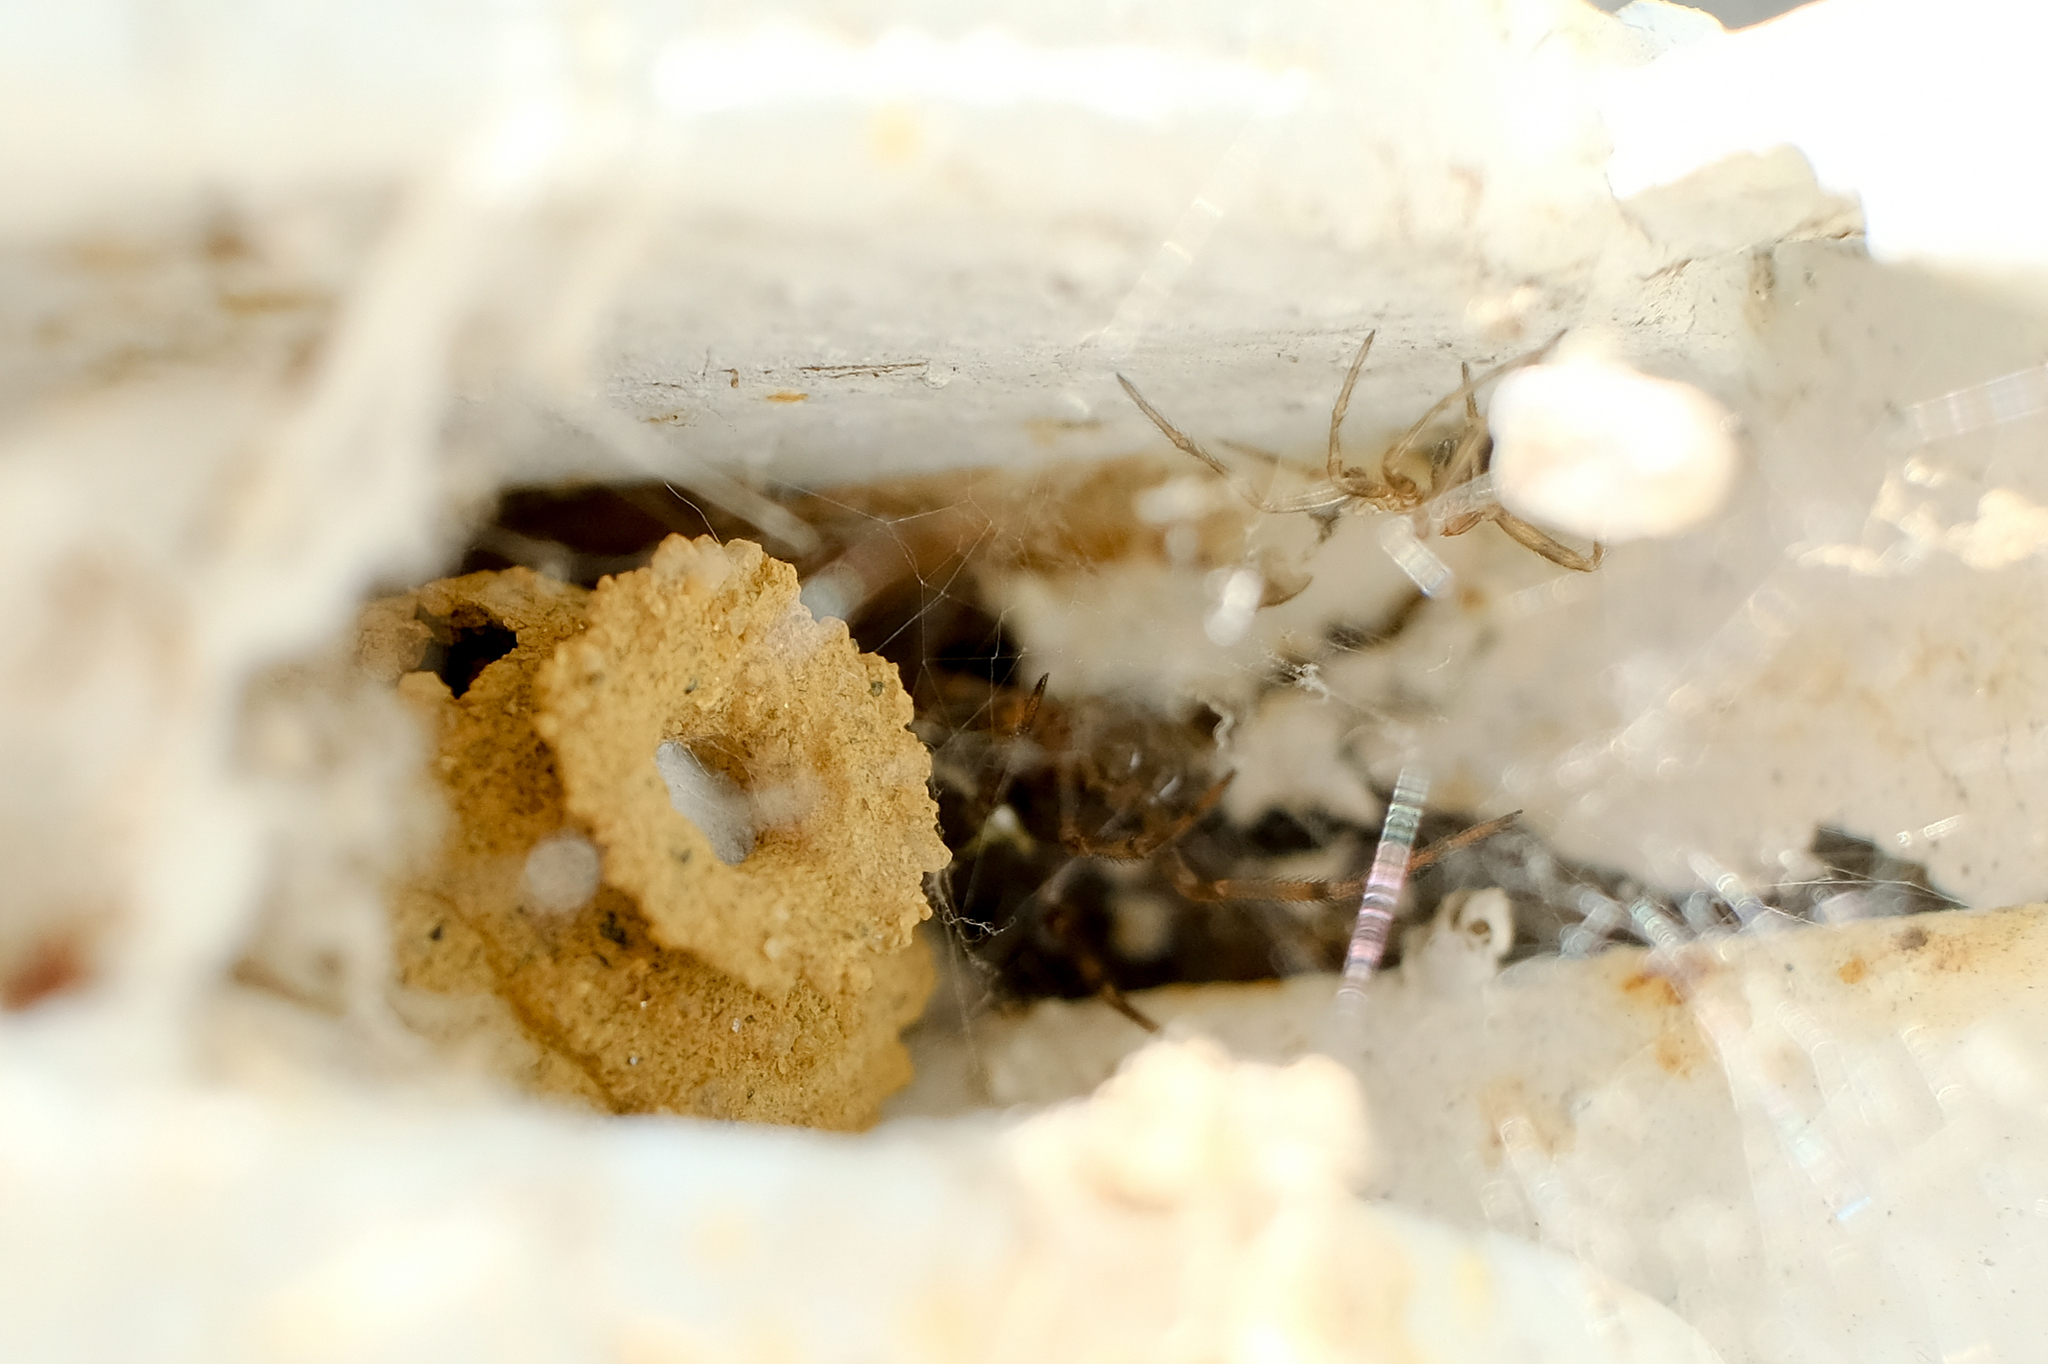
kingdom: Animalia
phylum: Arthropoda
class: Insecta
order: Hymenoptera
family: Vespidae
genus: Eumenes
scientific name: Eumenes
